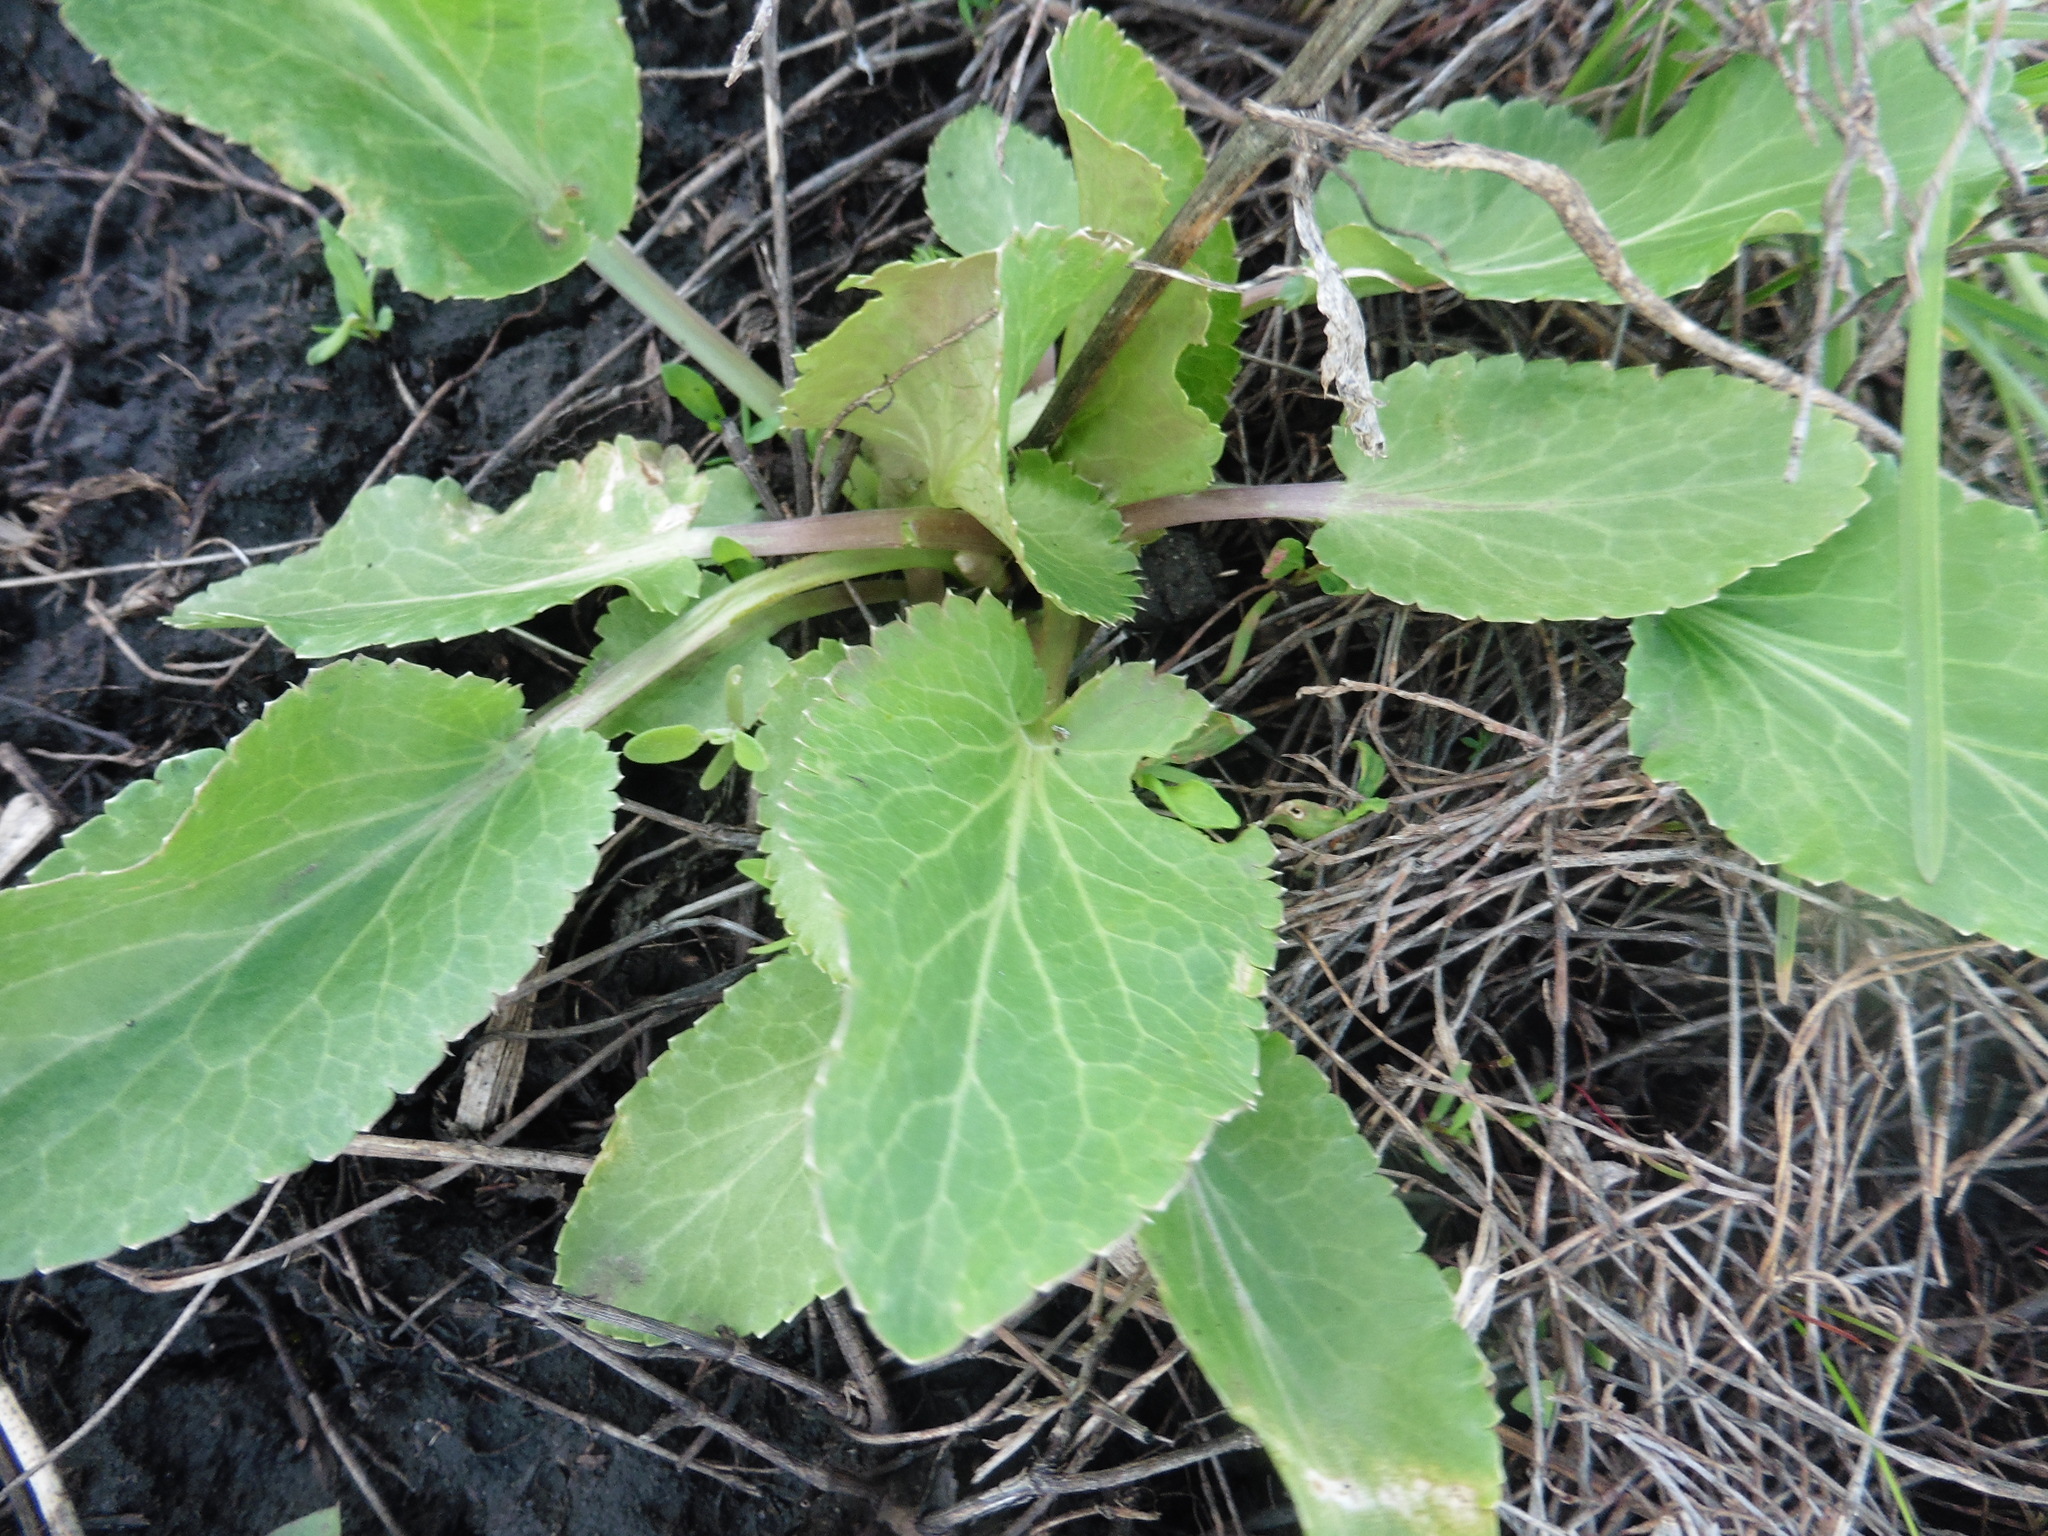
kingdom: Plantae
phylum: Tracheophyta
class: Magnoliopsida
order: Apiales
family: Apiaceae
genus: Eryngium
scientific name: Eryngium planum
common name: Blue eryngo
